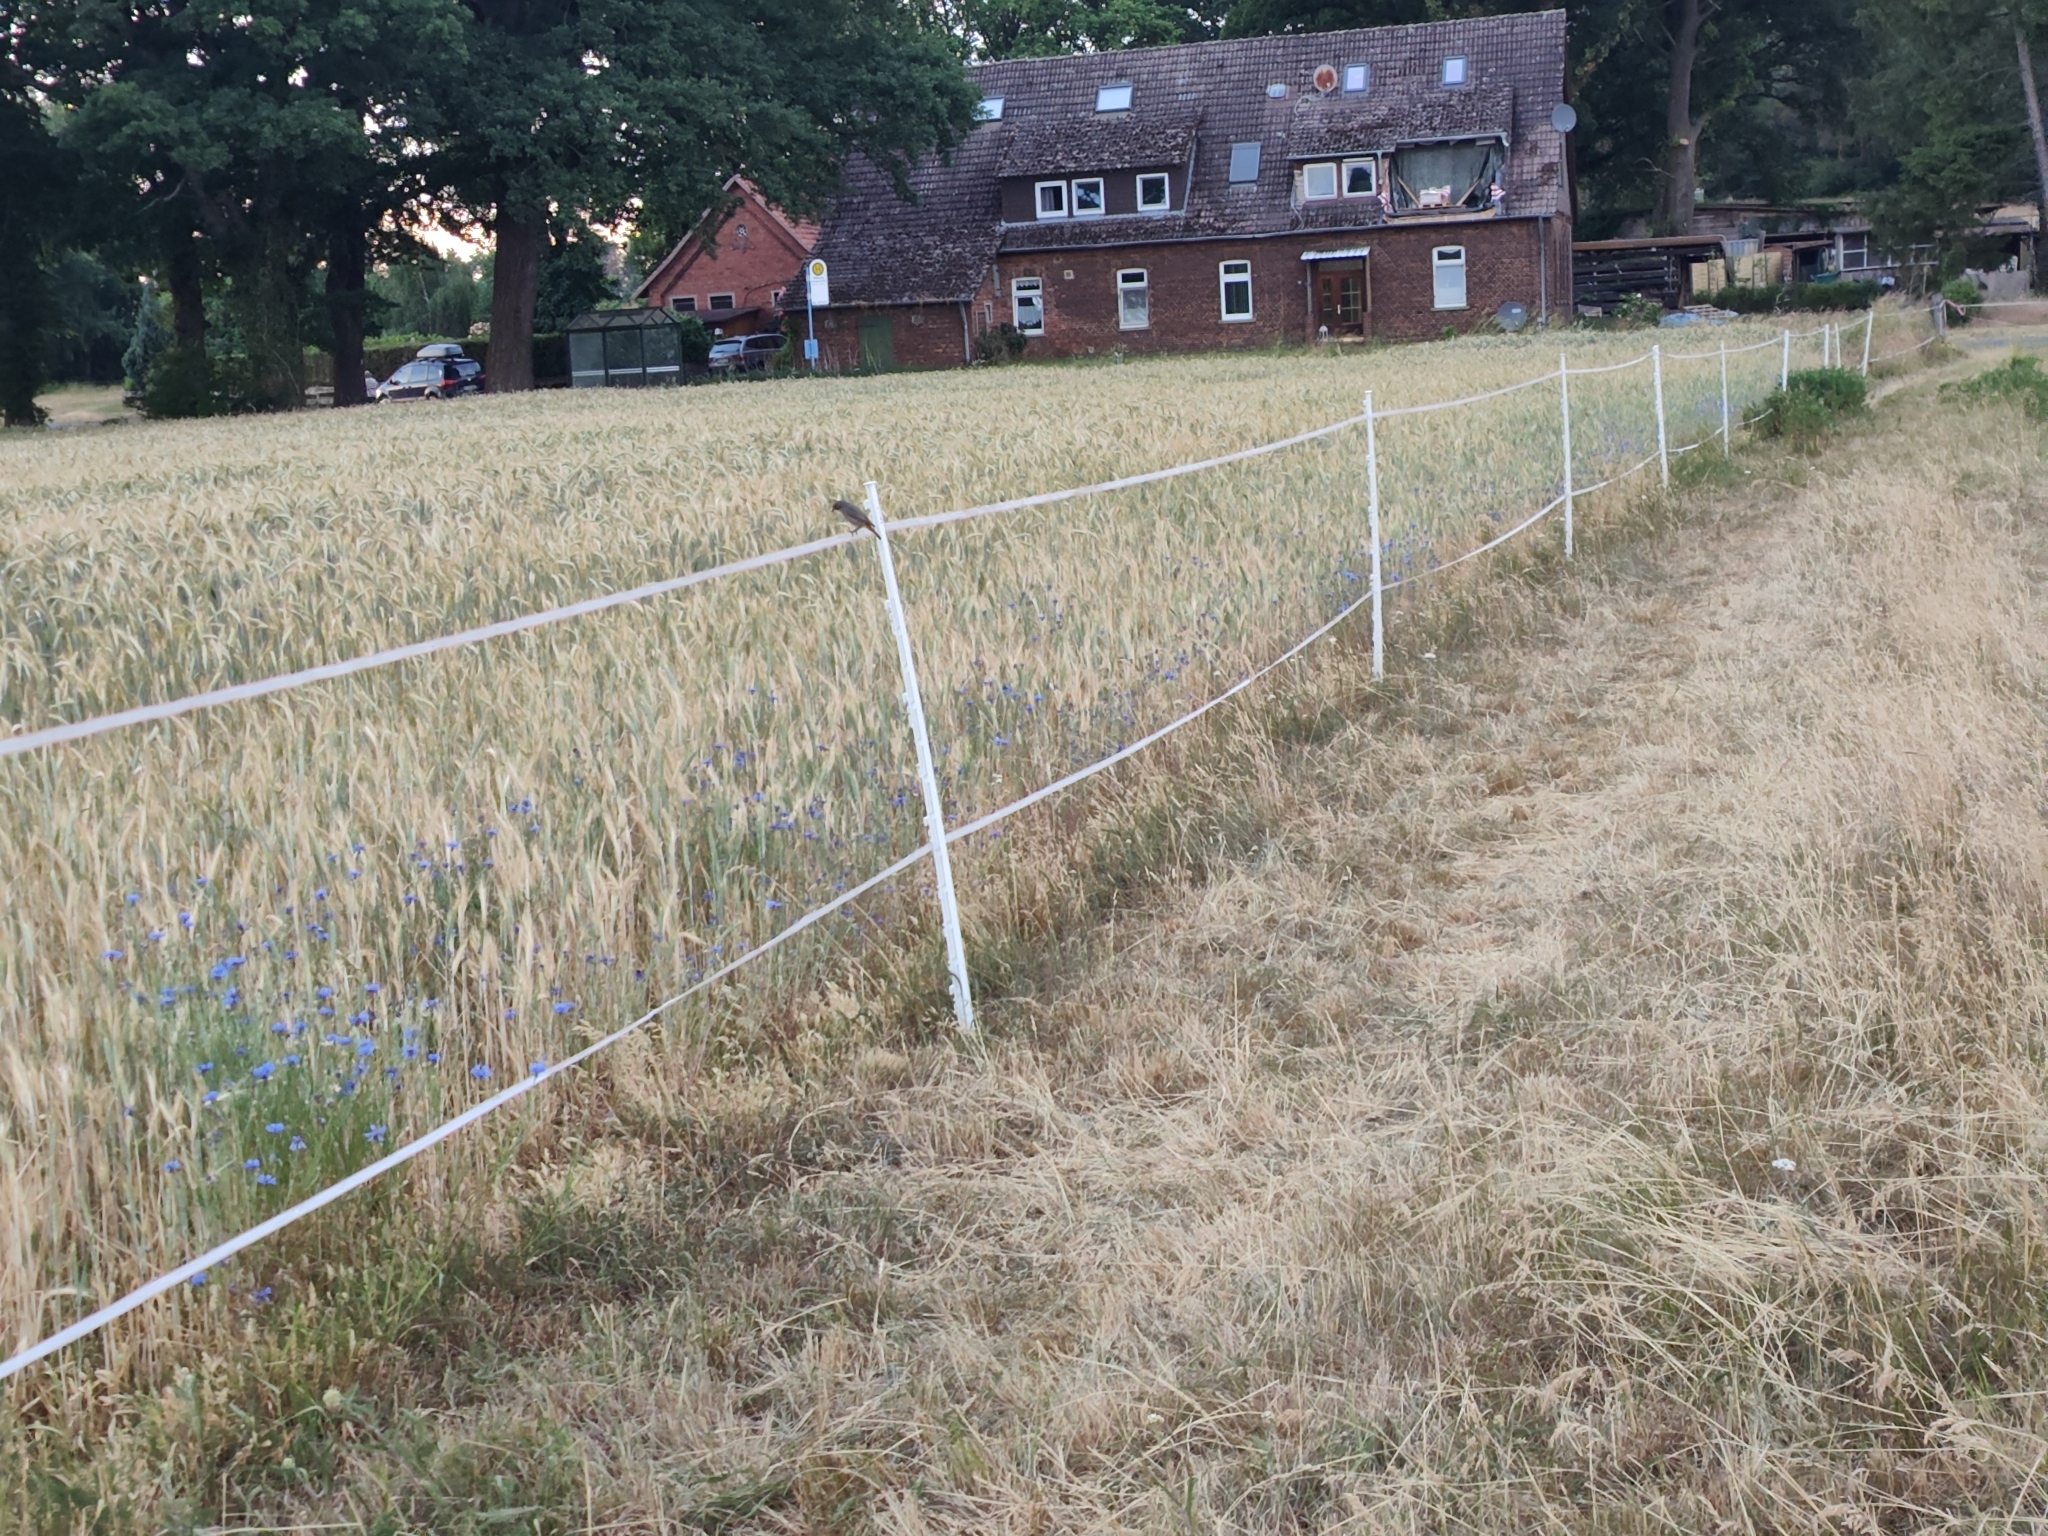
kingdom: Animalia
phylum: Chordata
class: Aves
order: Passeriformes
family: Muscicapidae
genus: Phoenicurus
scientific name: Phoenicurus ochruros
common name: Black redstart
